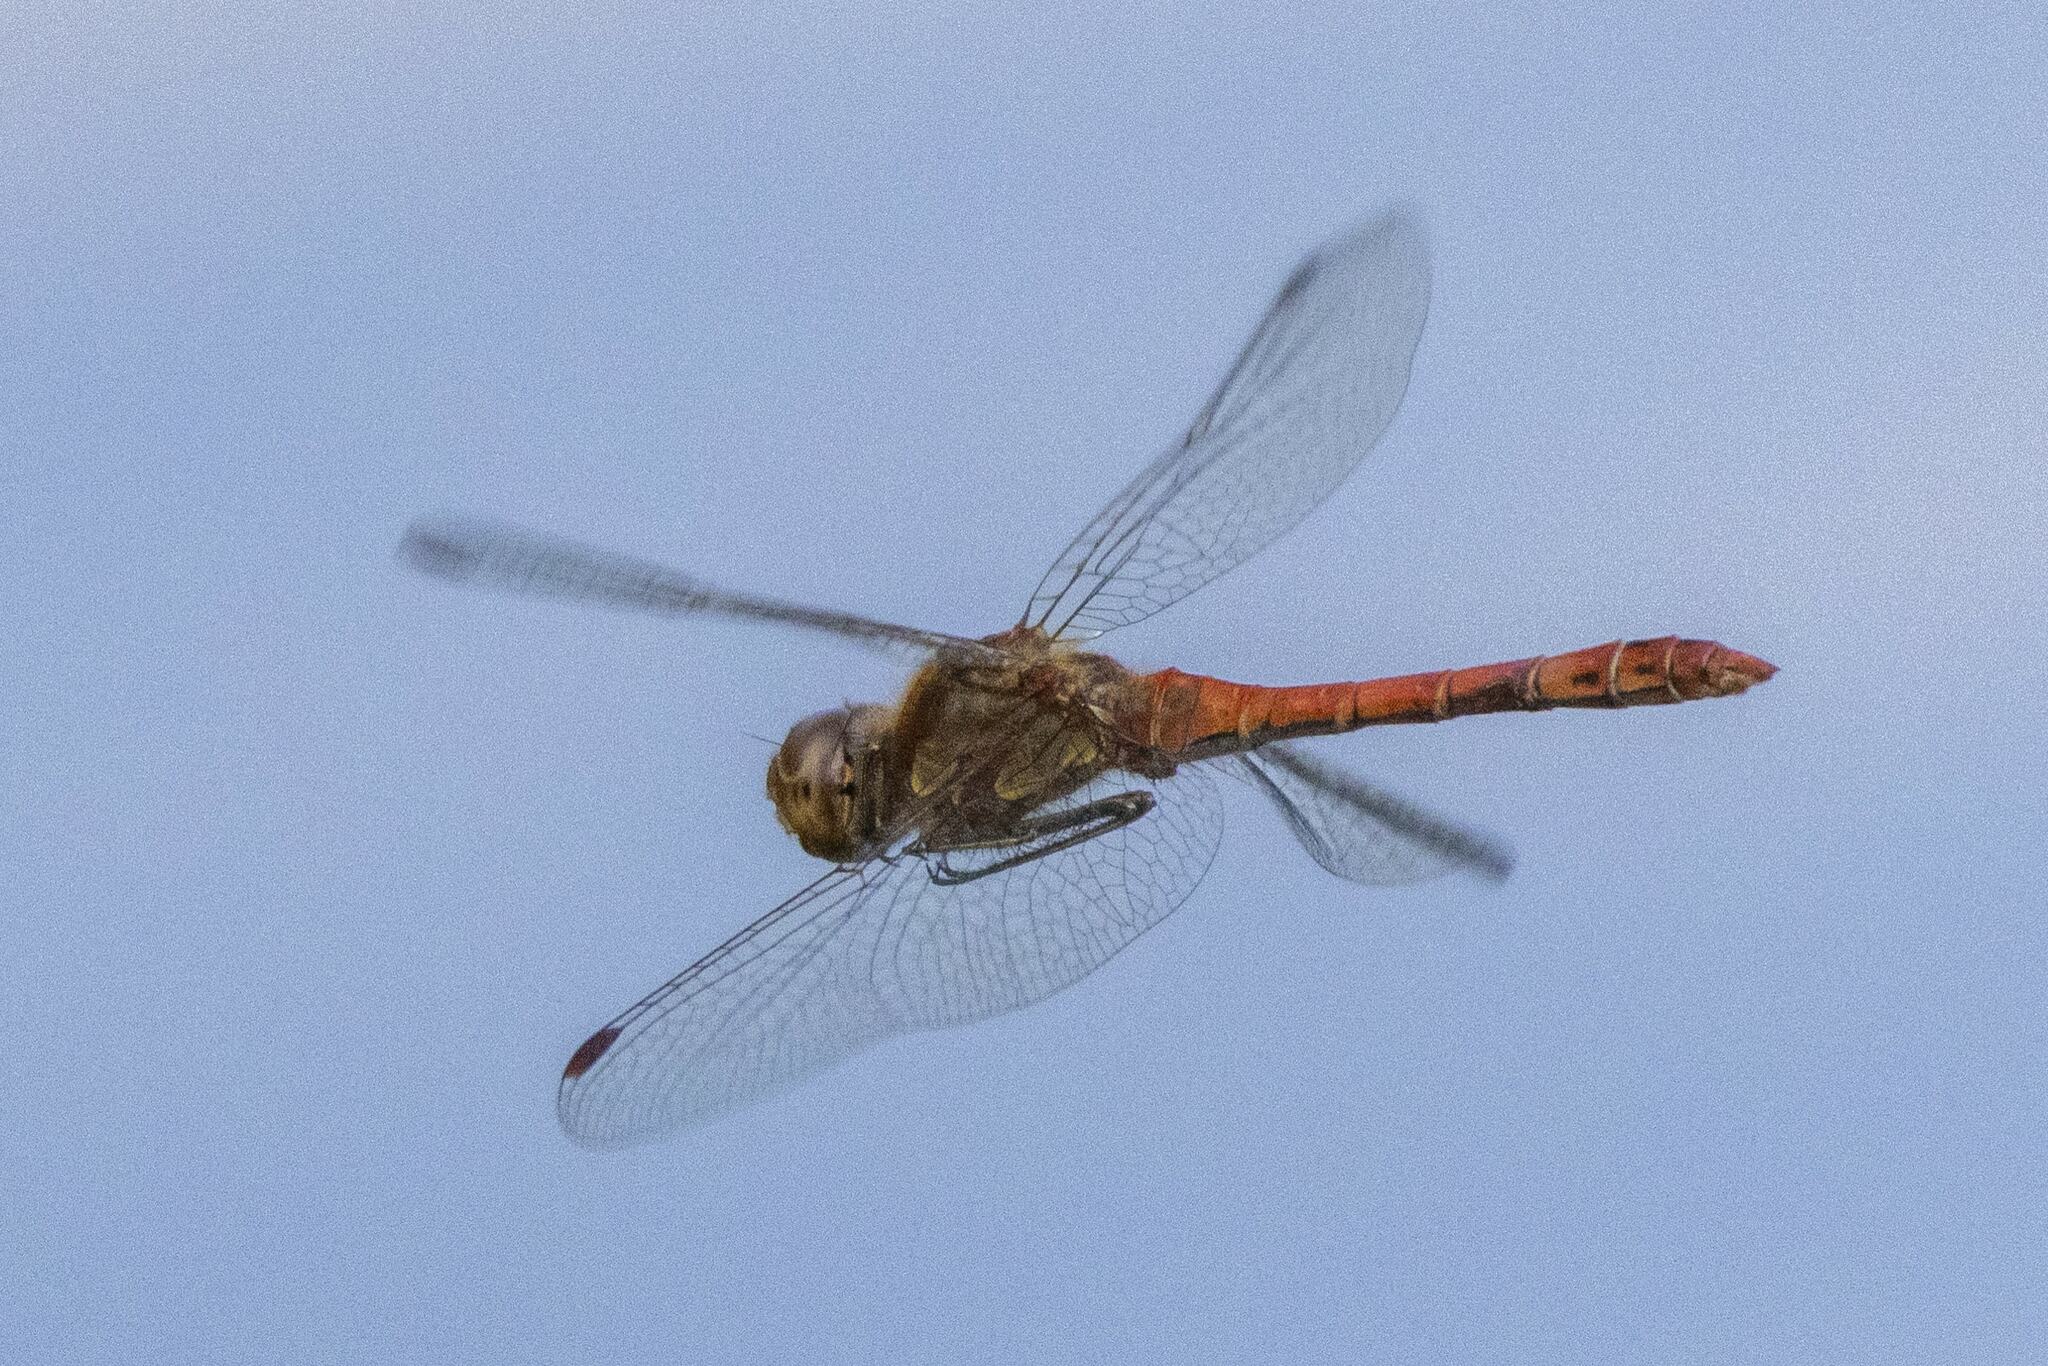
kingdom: Animalia
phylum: Arthropoda
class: Insecta
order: Odonata
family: Libellulidae
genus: Sympetrum
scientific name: Sympetrum striolatum
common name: Common darter
